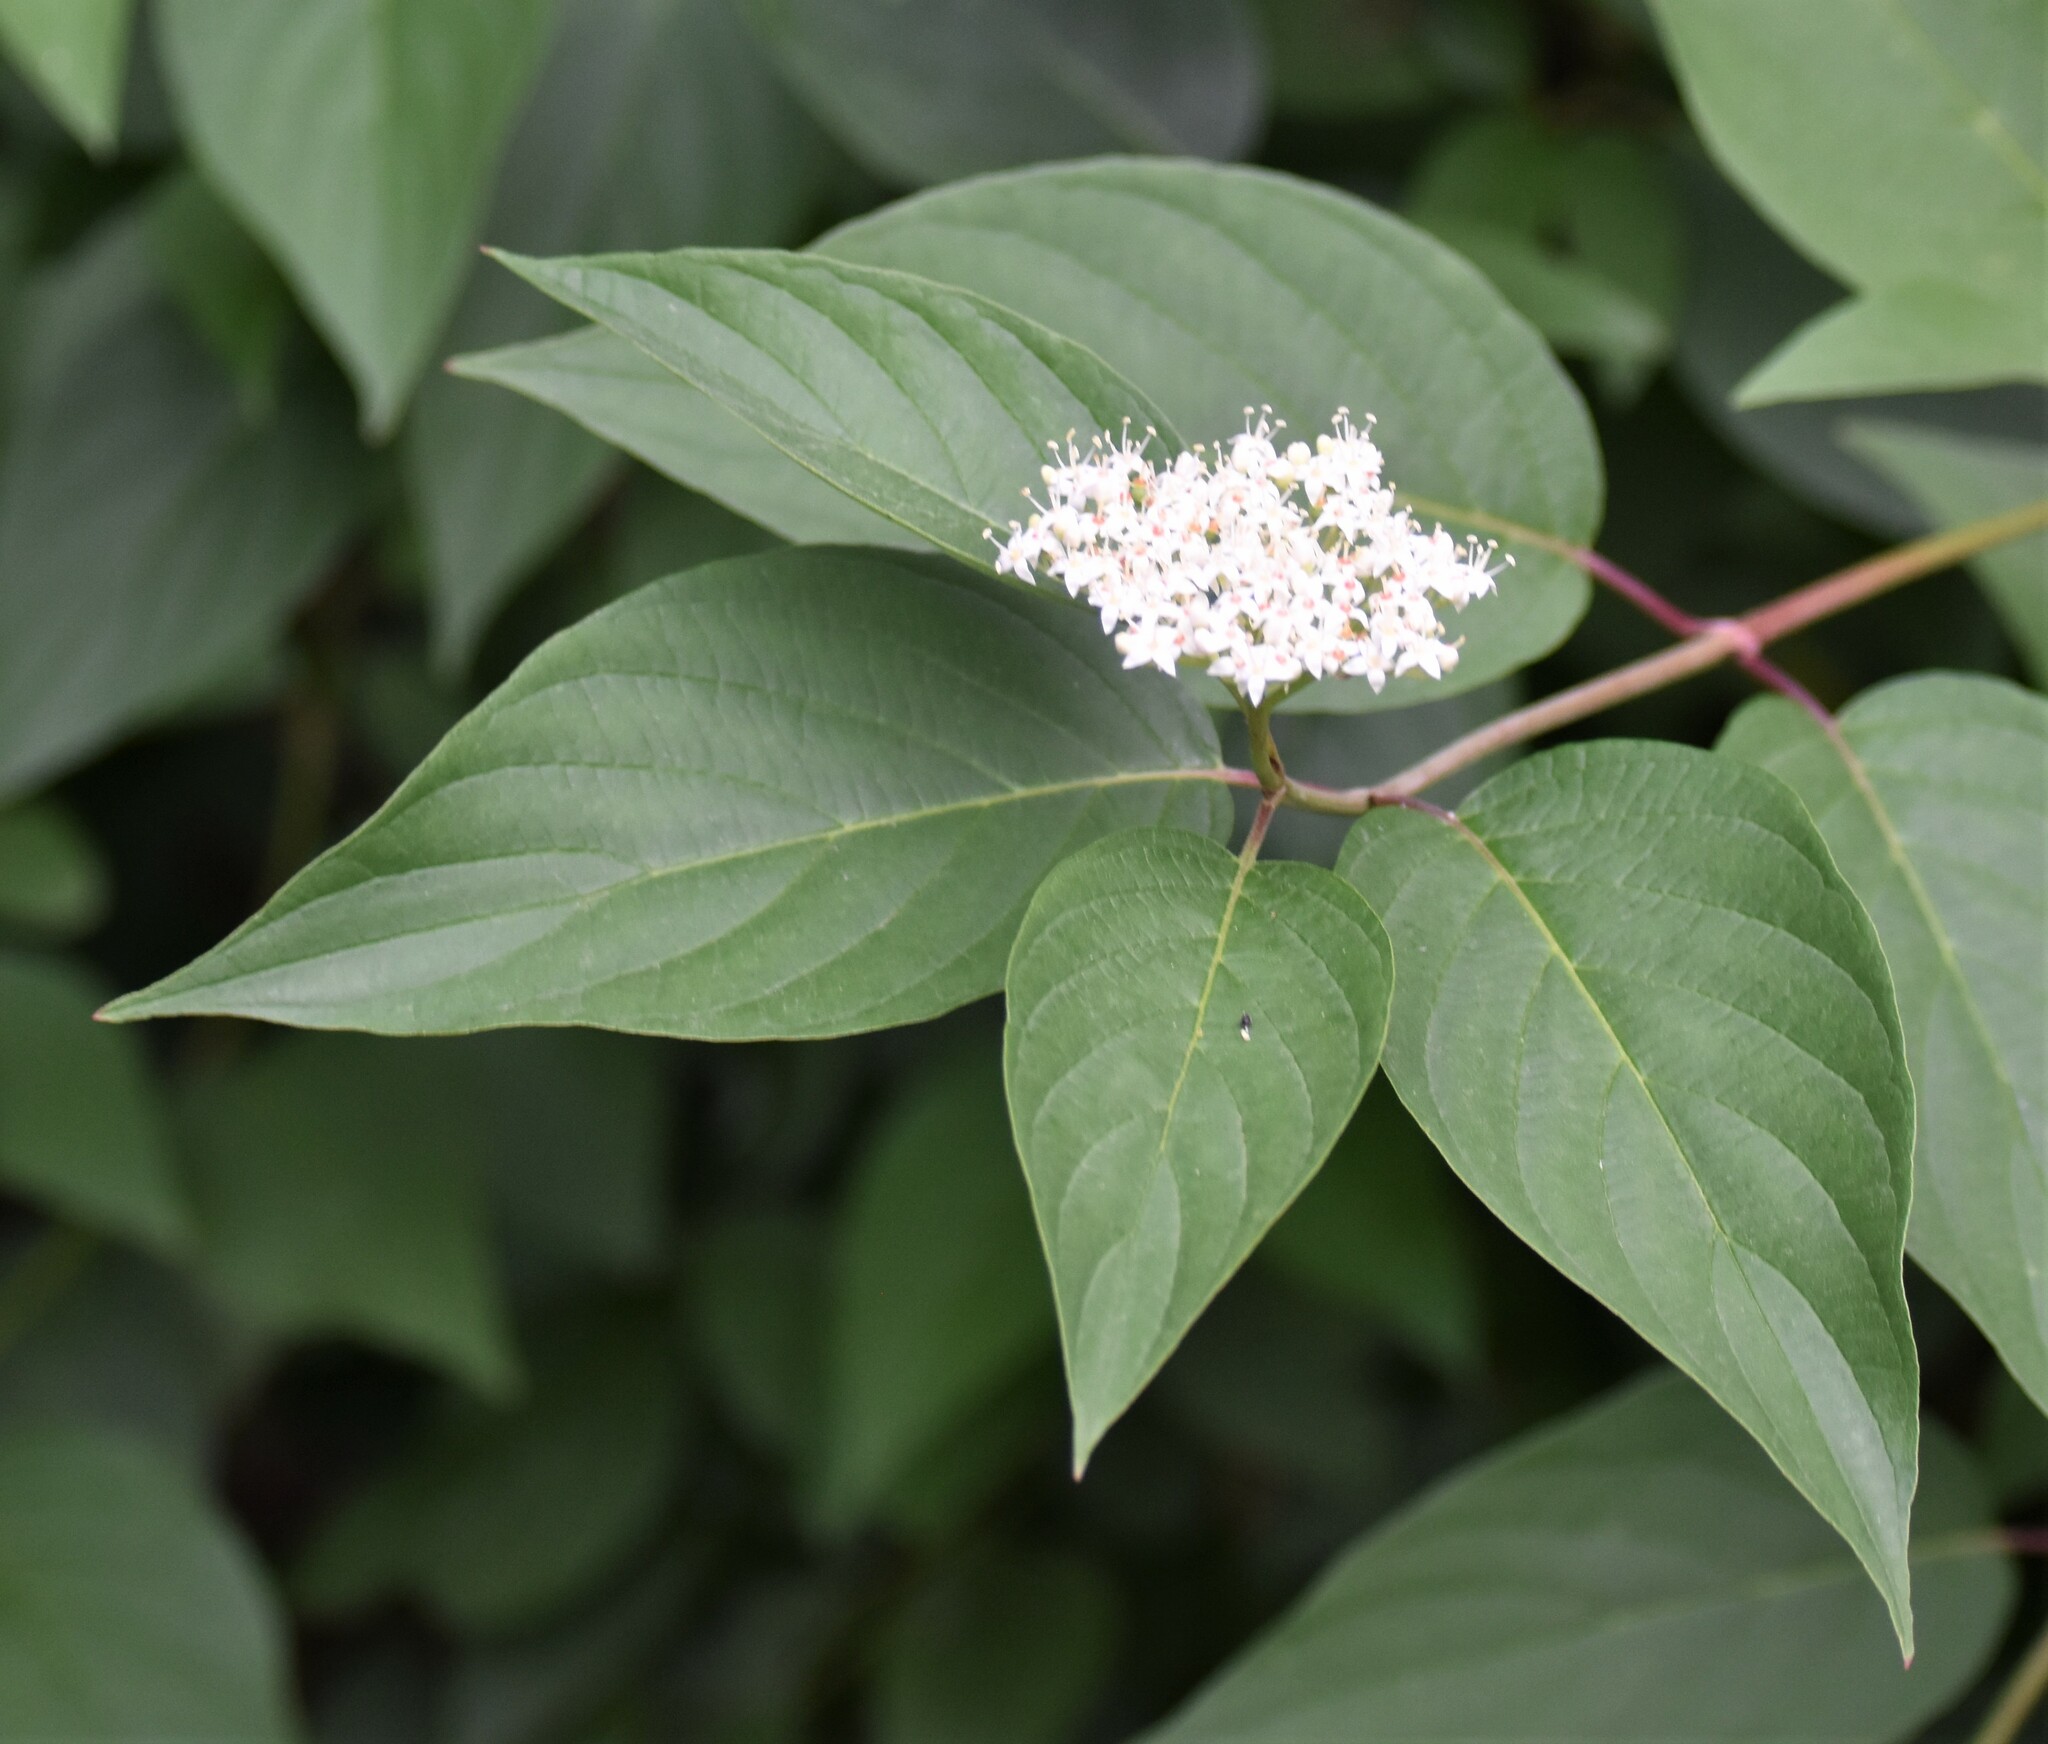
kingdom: Plantae
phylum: Tracheophyta
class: Magnoliopsida
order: Cornales
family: Cornaceae
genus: Cornus
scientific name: Cornus sericea
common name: Red-osier dogwood
